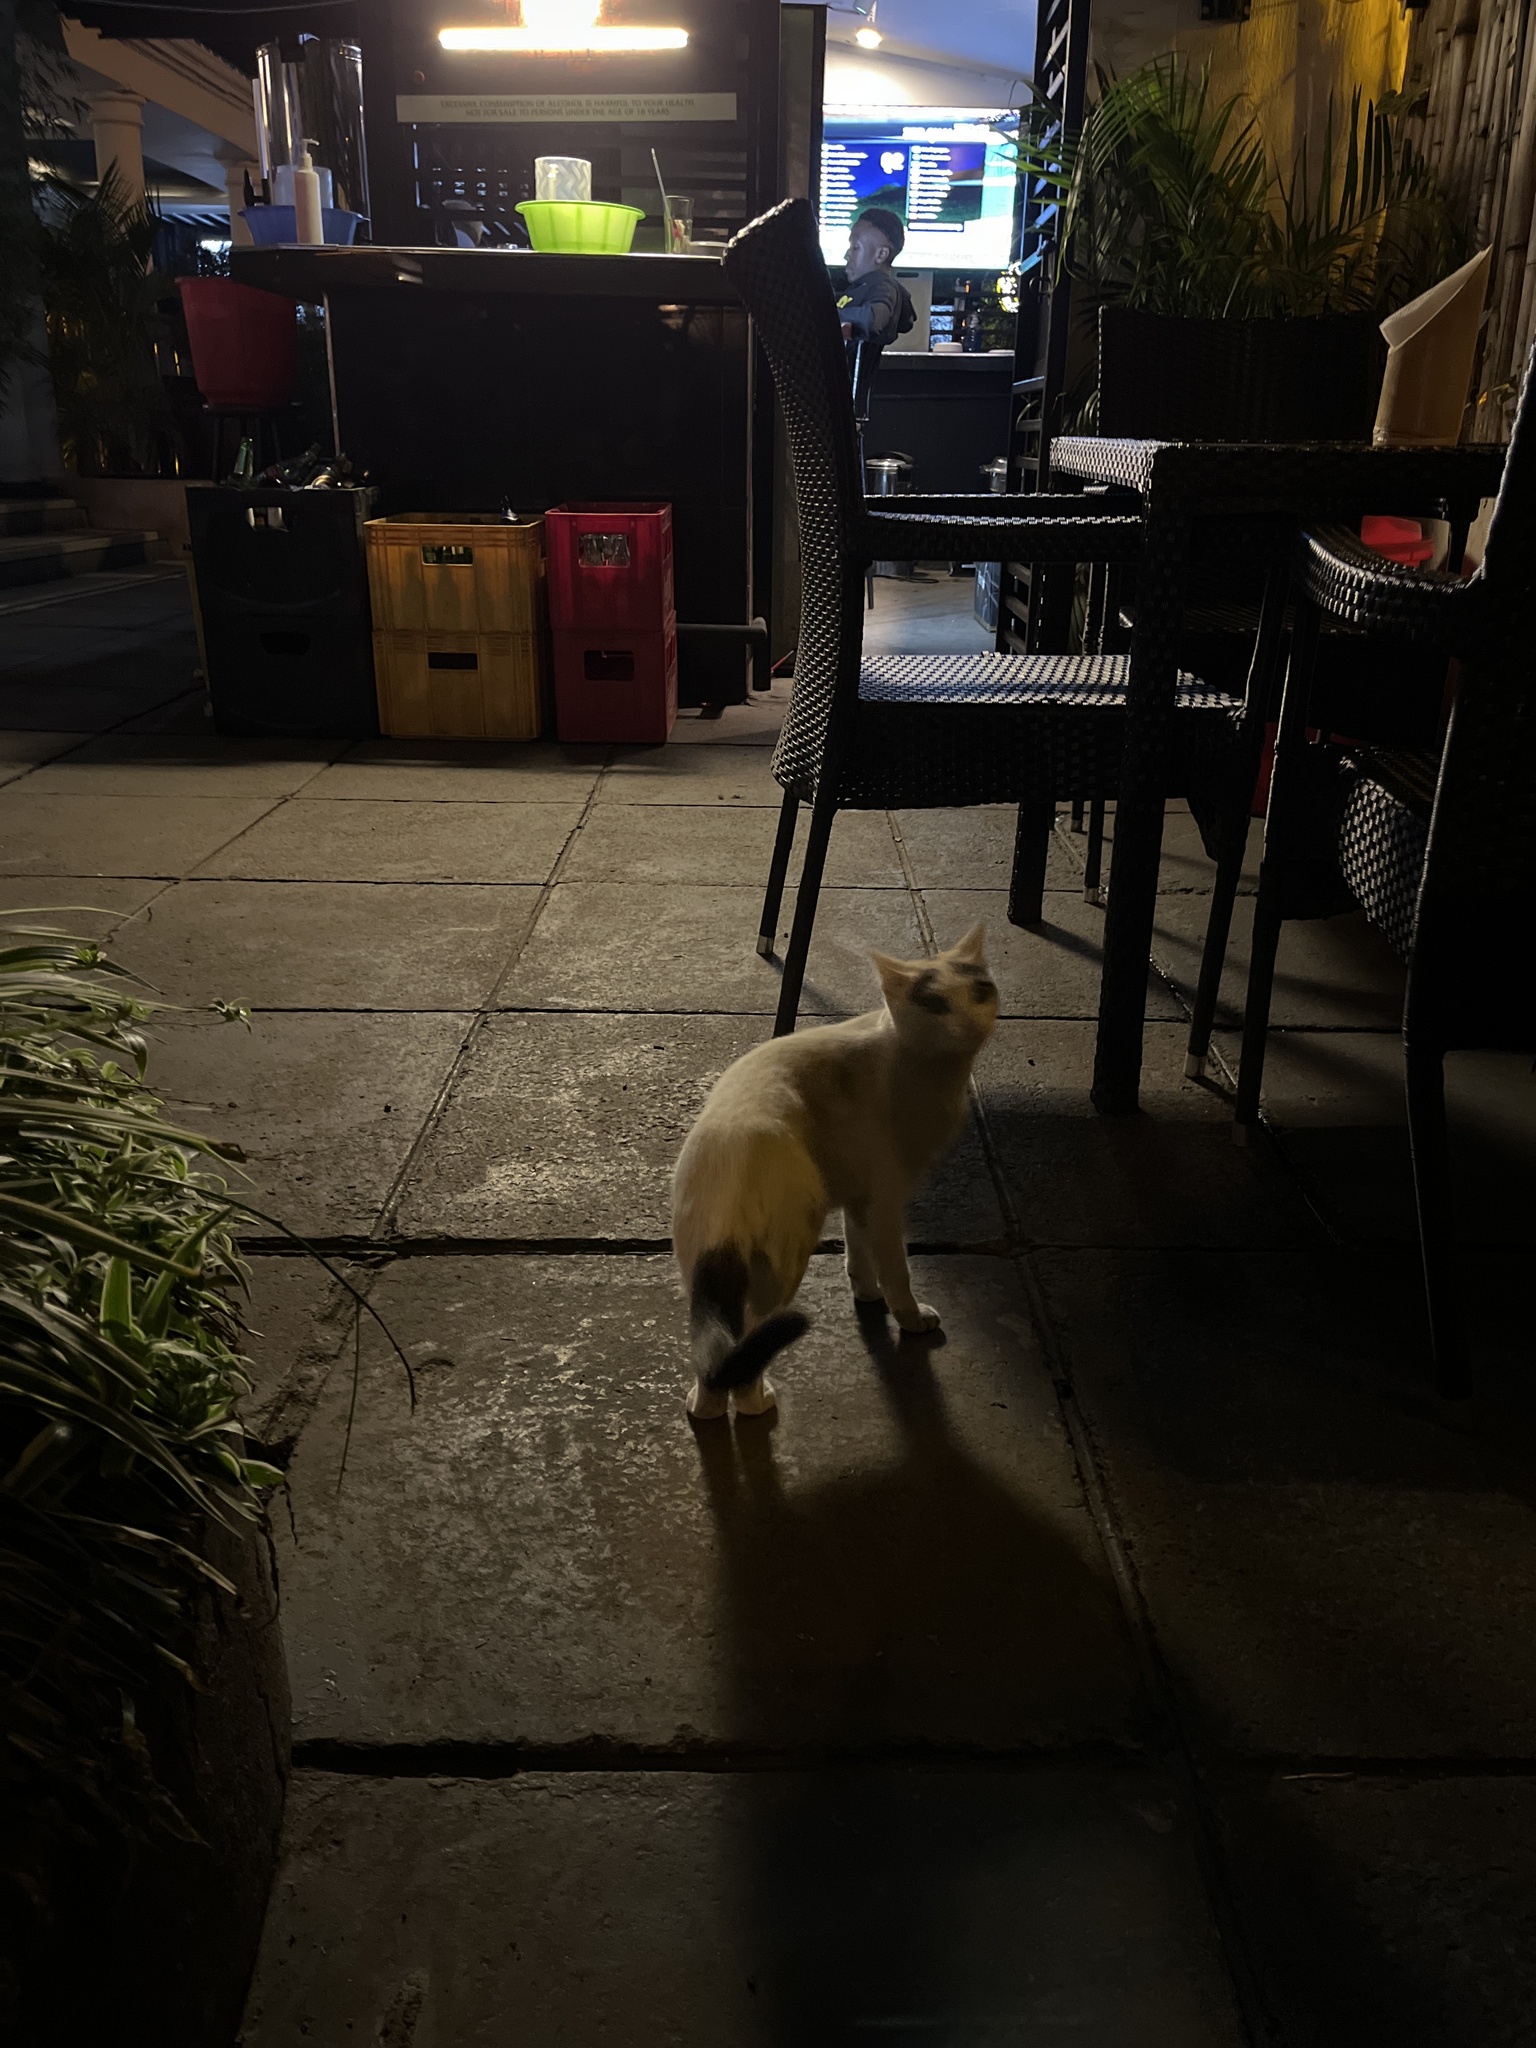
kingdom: Animalia
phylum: Chordata
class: Mammalia
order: Carnivora
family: Felidae
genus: Felis
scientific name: Felis catus
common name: Domestic cat
